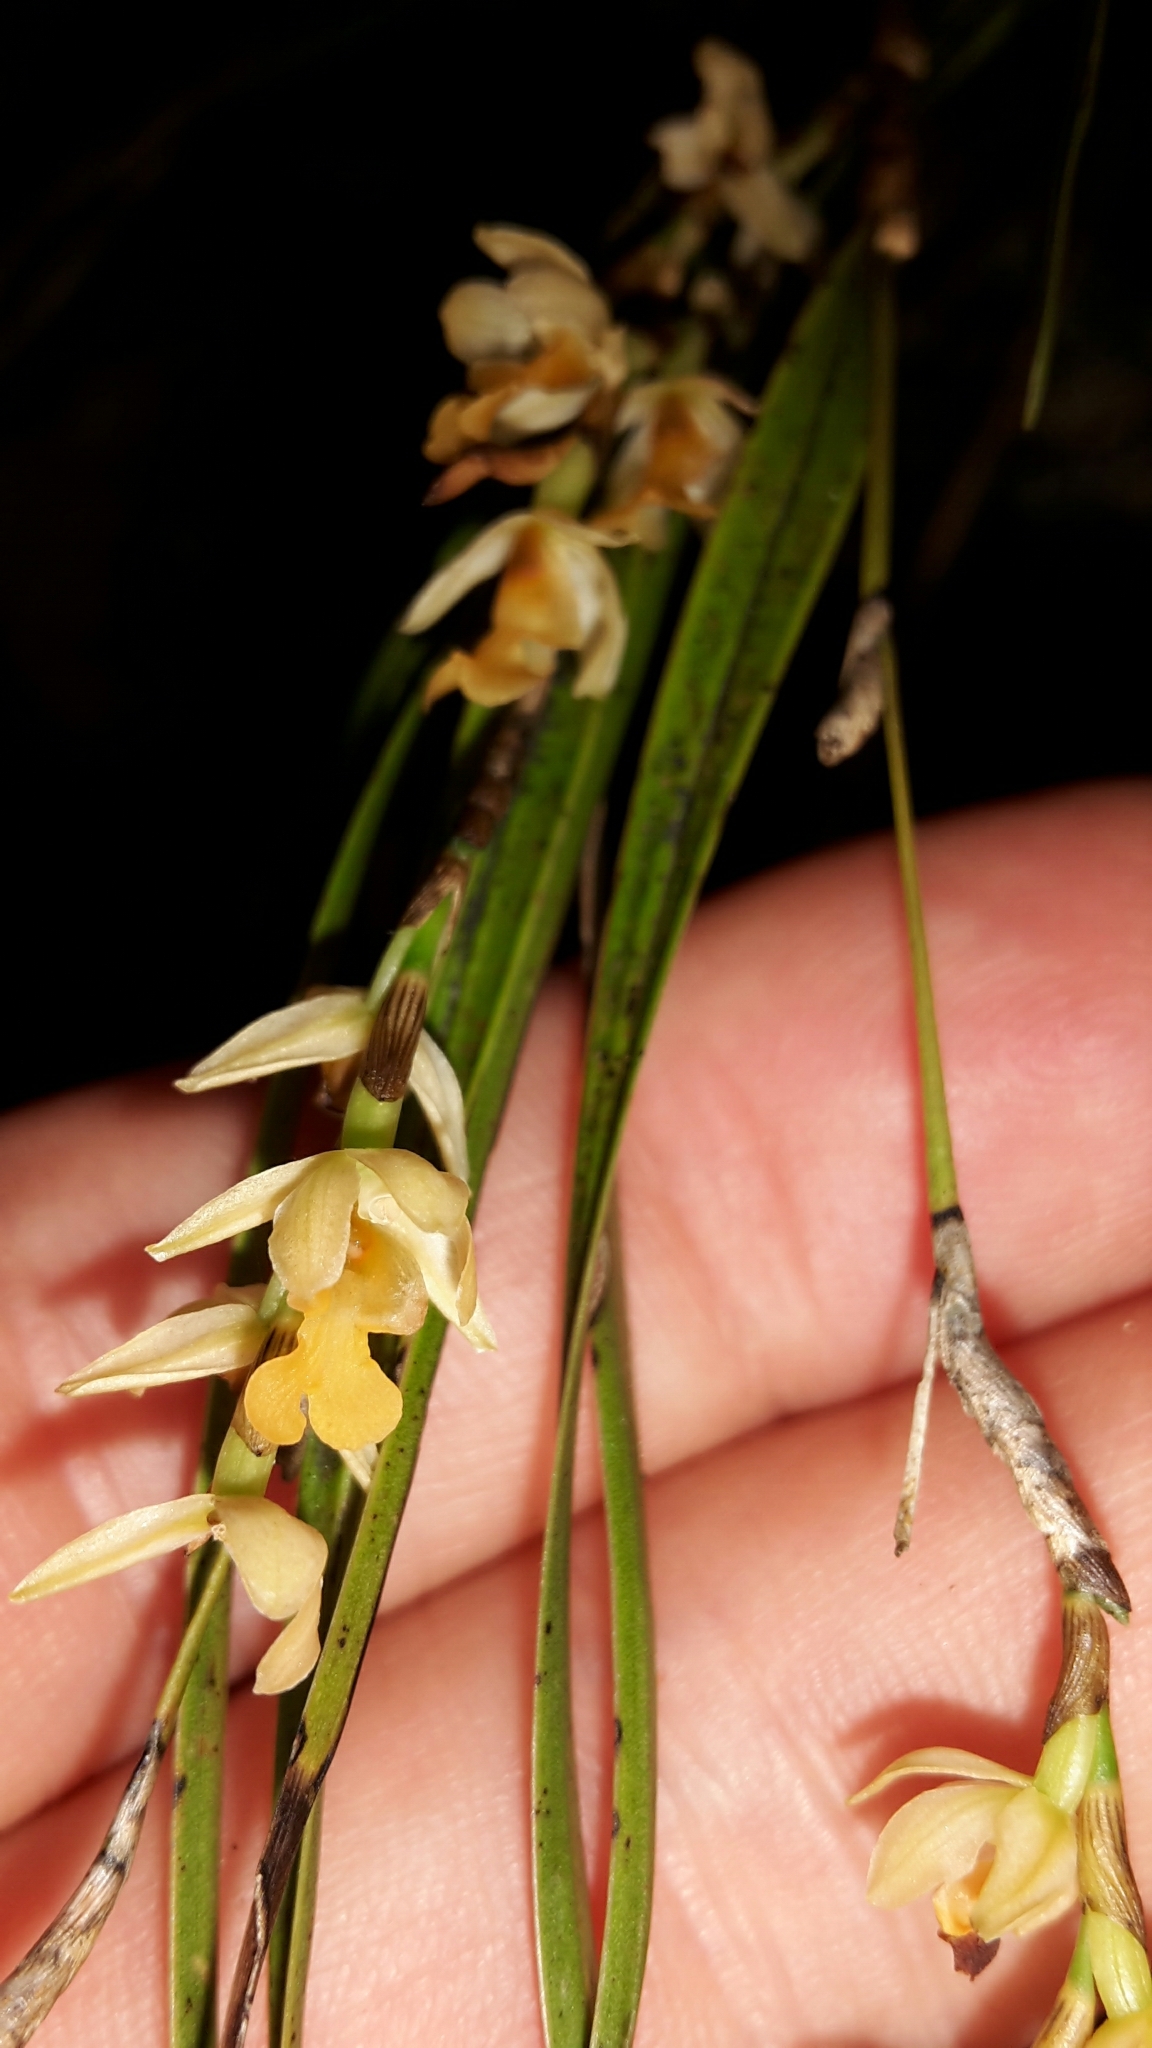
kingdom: Plantae
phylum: Tracheophyta
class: Liliopsida
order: Asparagales
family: Orchidaceae
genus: Earina
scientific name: Earina mucronata
